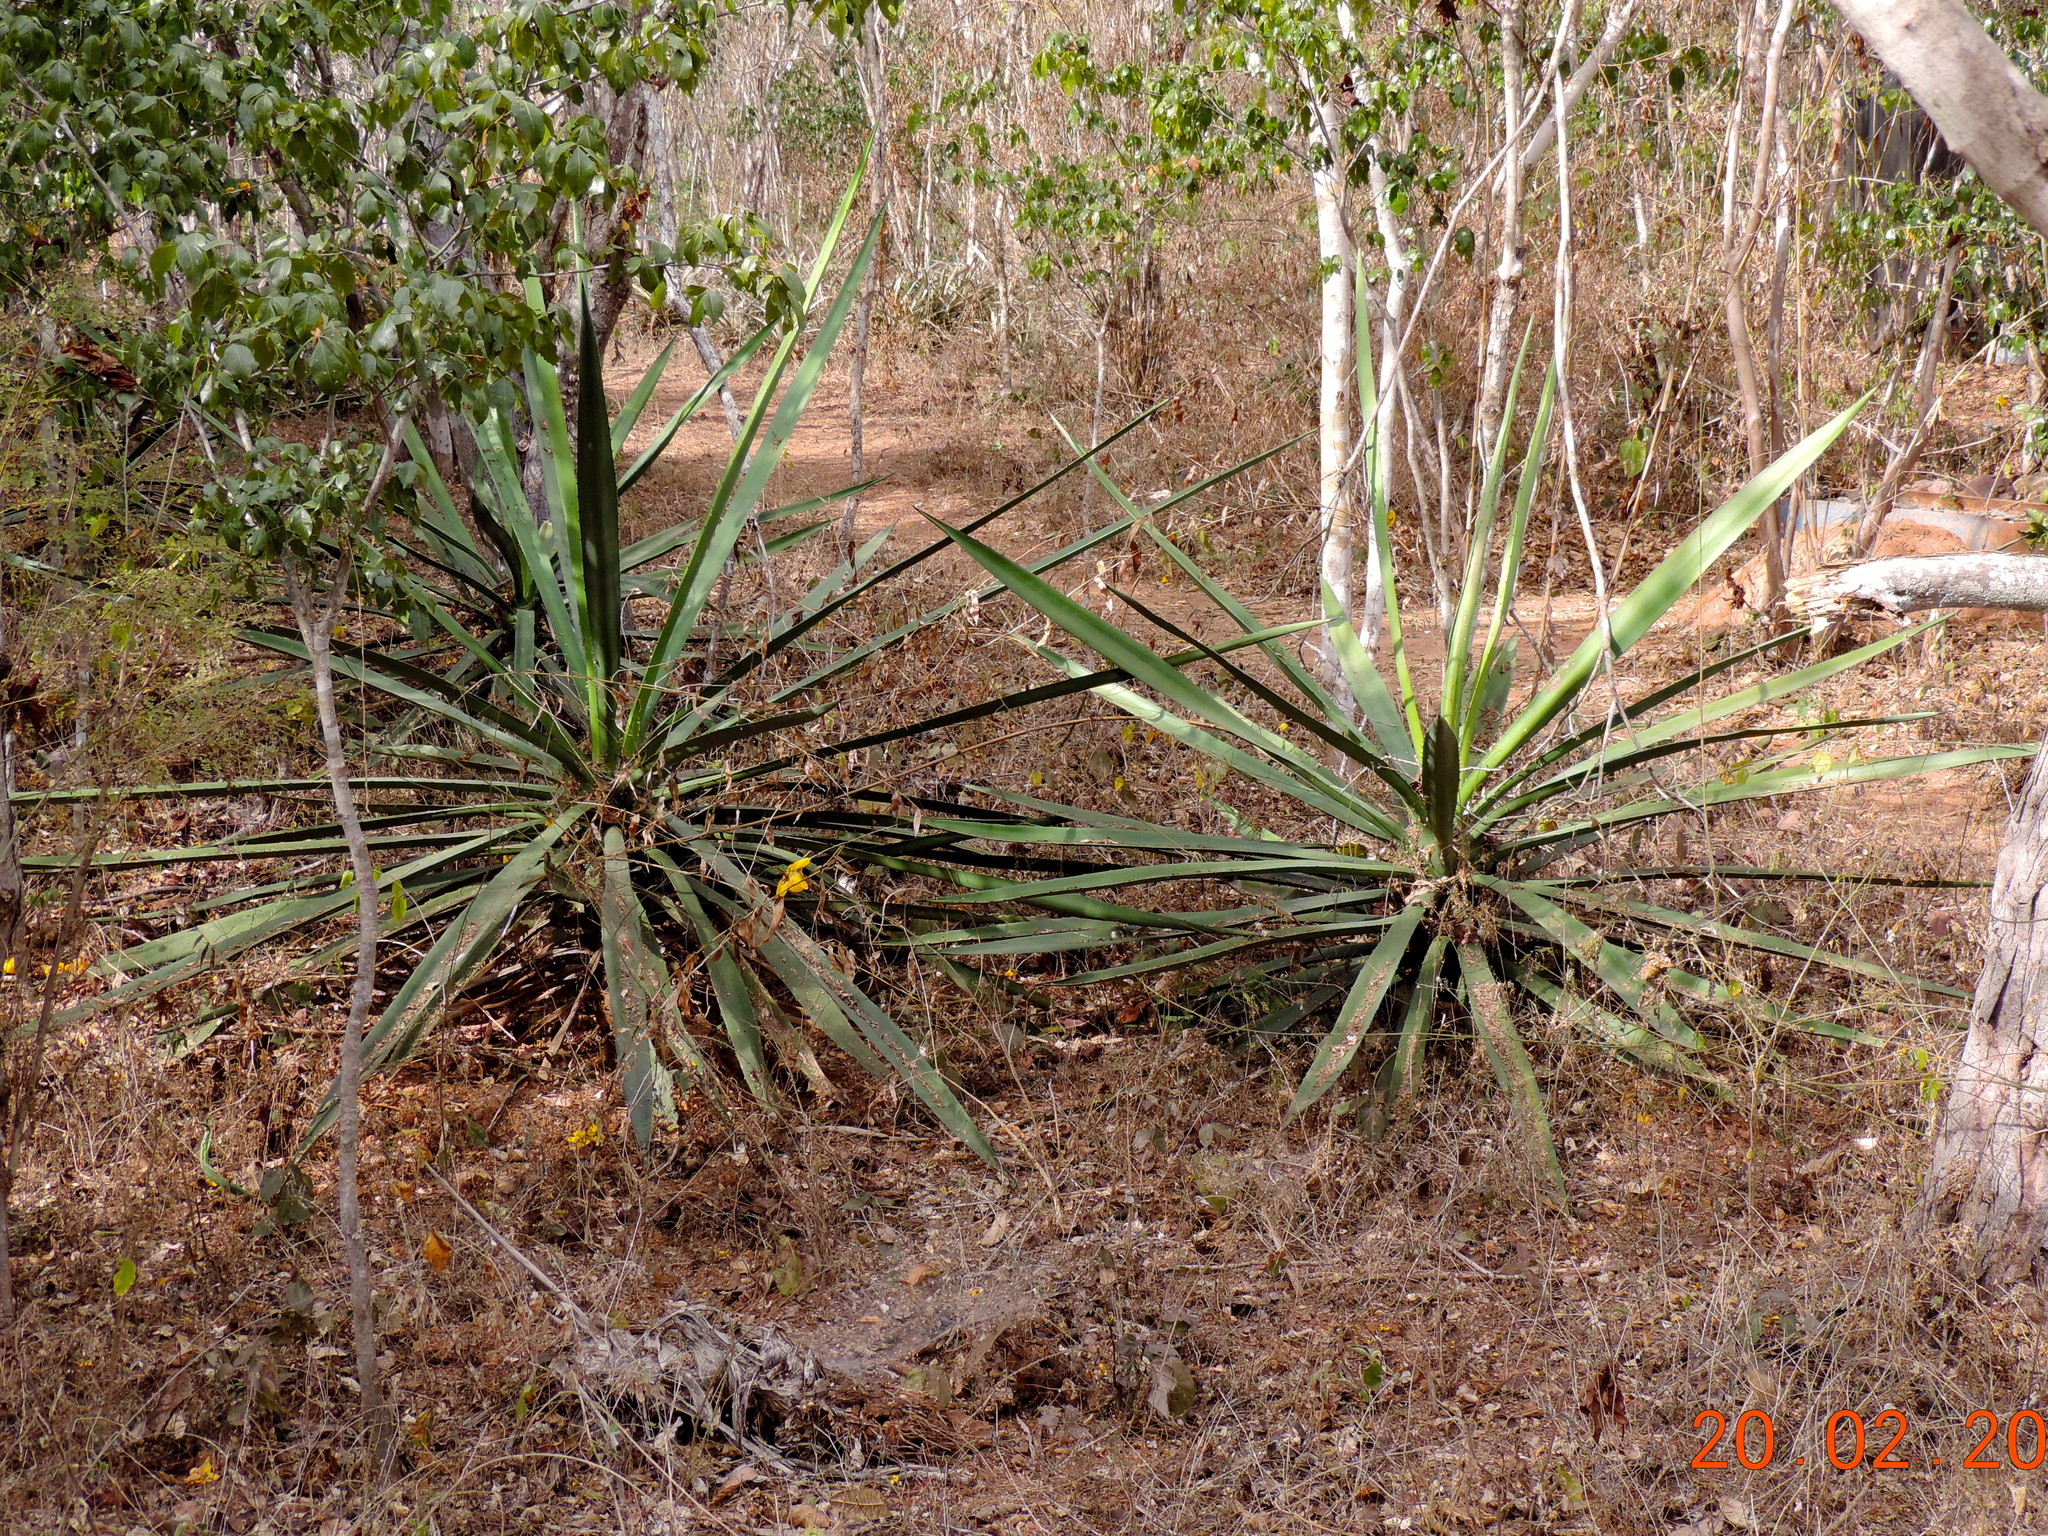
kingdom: Plantae
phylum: Tracheophyta
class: Liliopsida
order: Asparagales
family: Asparagaceae
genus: Agave
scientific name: Agave vivipara
